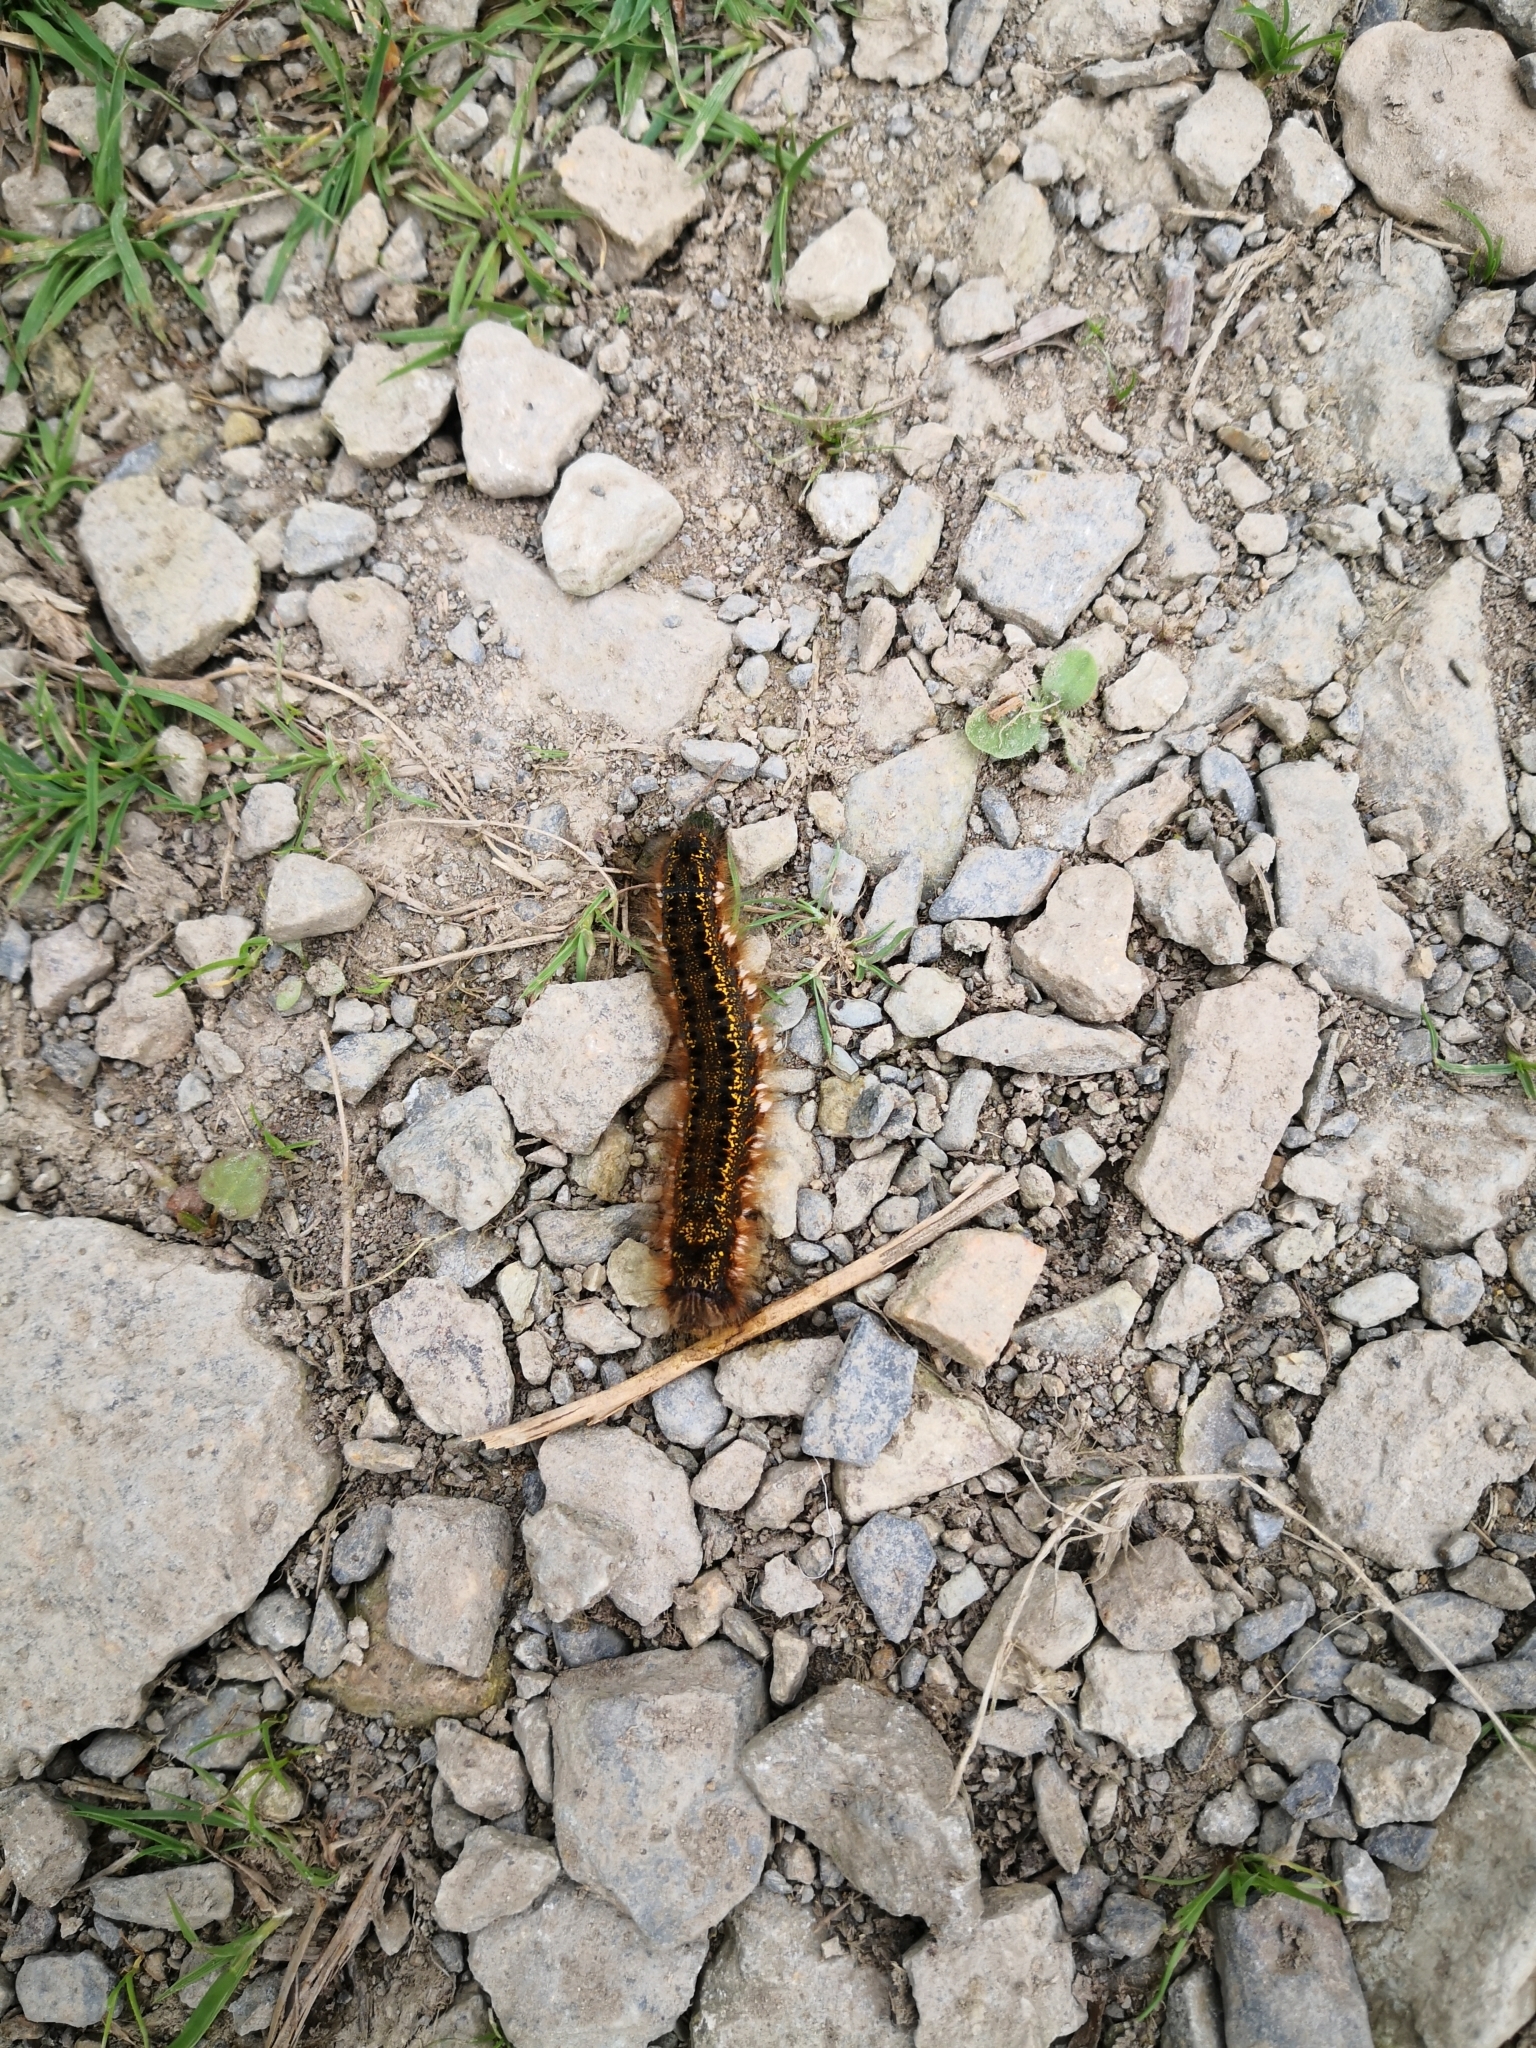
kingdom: Animalia
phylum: Arthropoda
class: Insecta
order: Lepidoptera
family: Lasiocampidae
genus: Euthrix
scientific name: Euthrix potatoria
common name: Drinker
